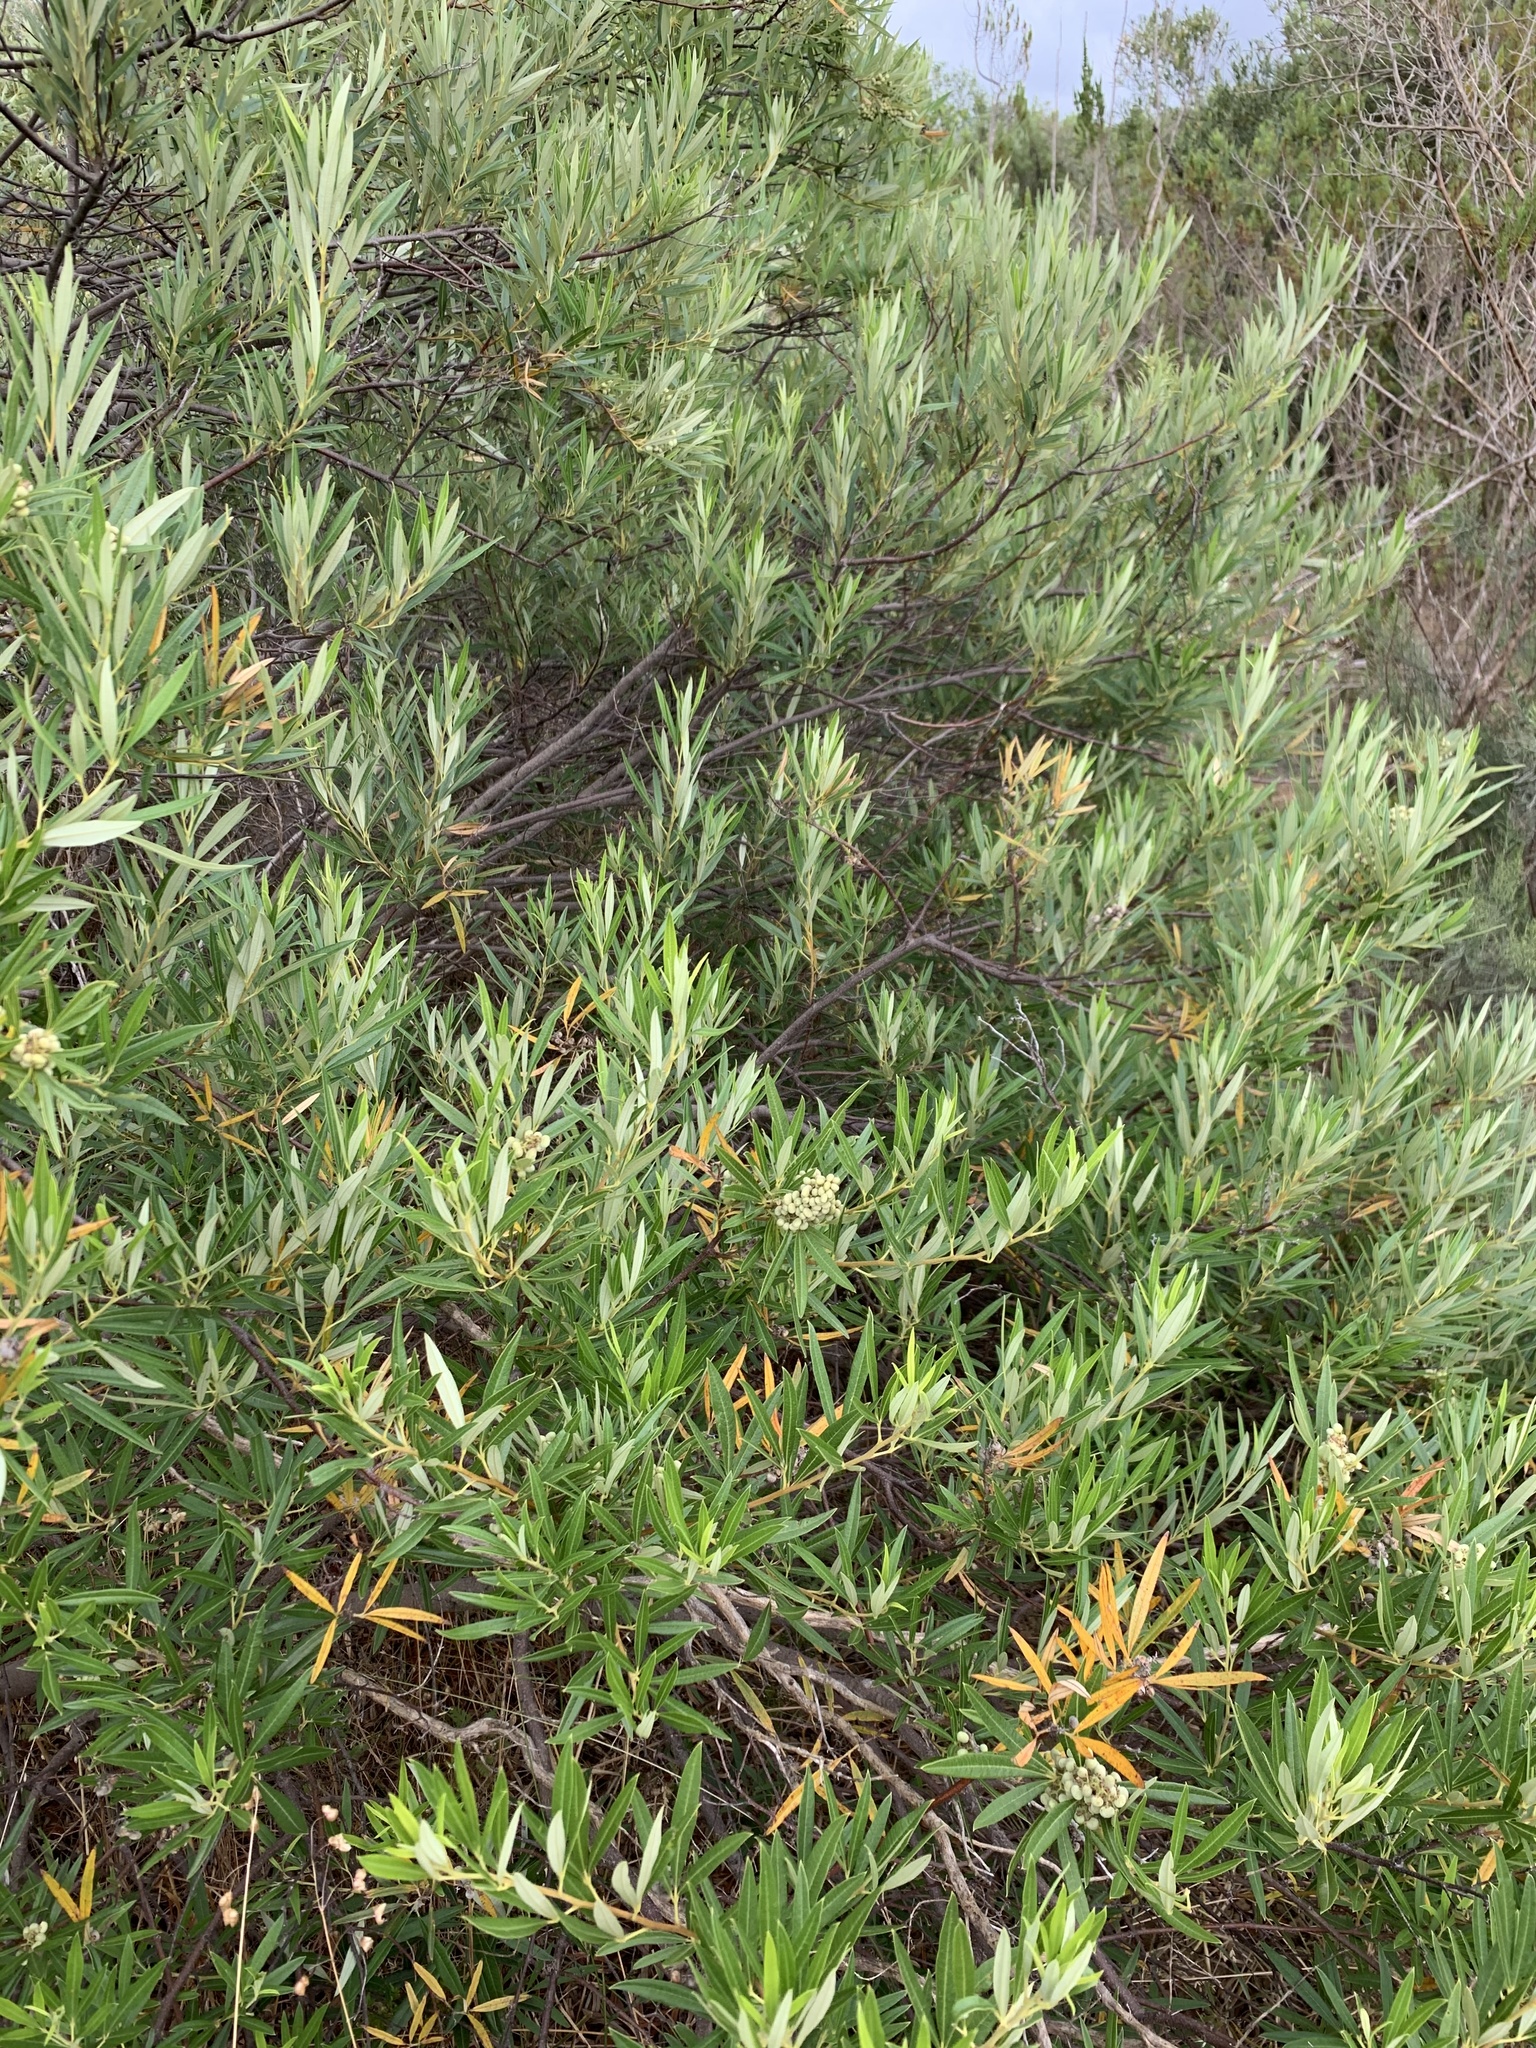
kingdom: Plantae
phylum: Tracheophyta
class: Magnoliopsida
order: Sapindales
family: Anacardiaceae
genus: Searsia
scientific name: Searsia angustifolia
